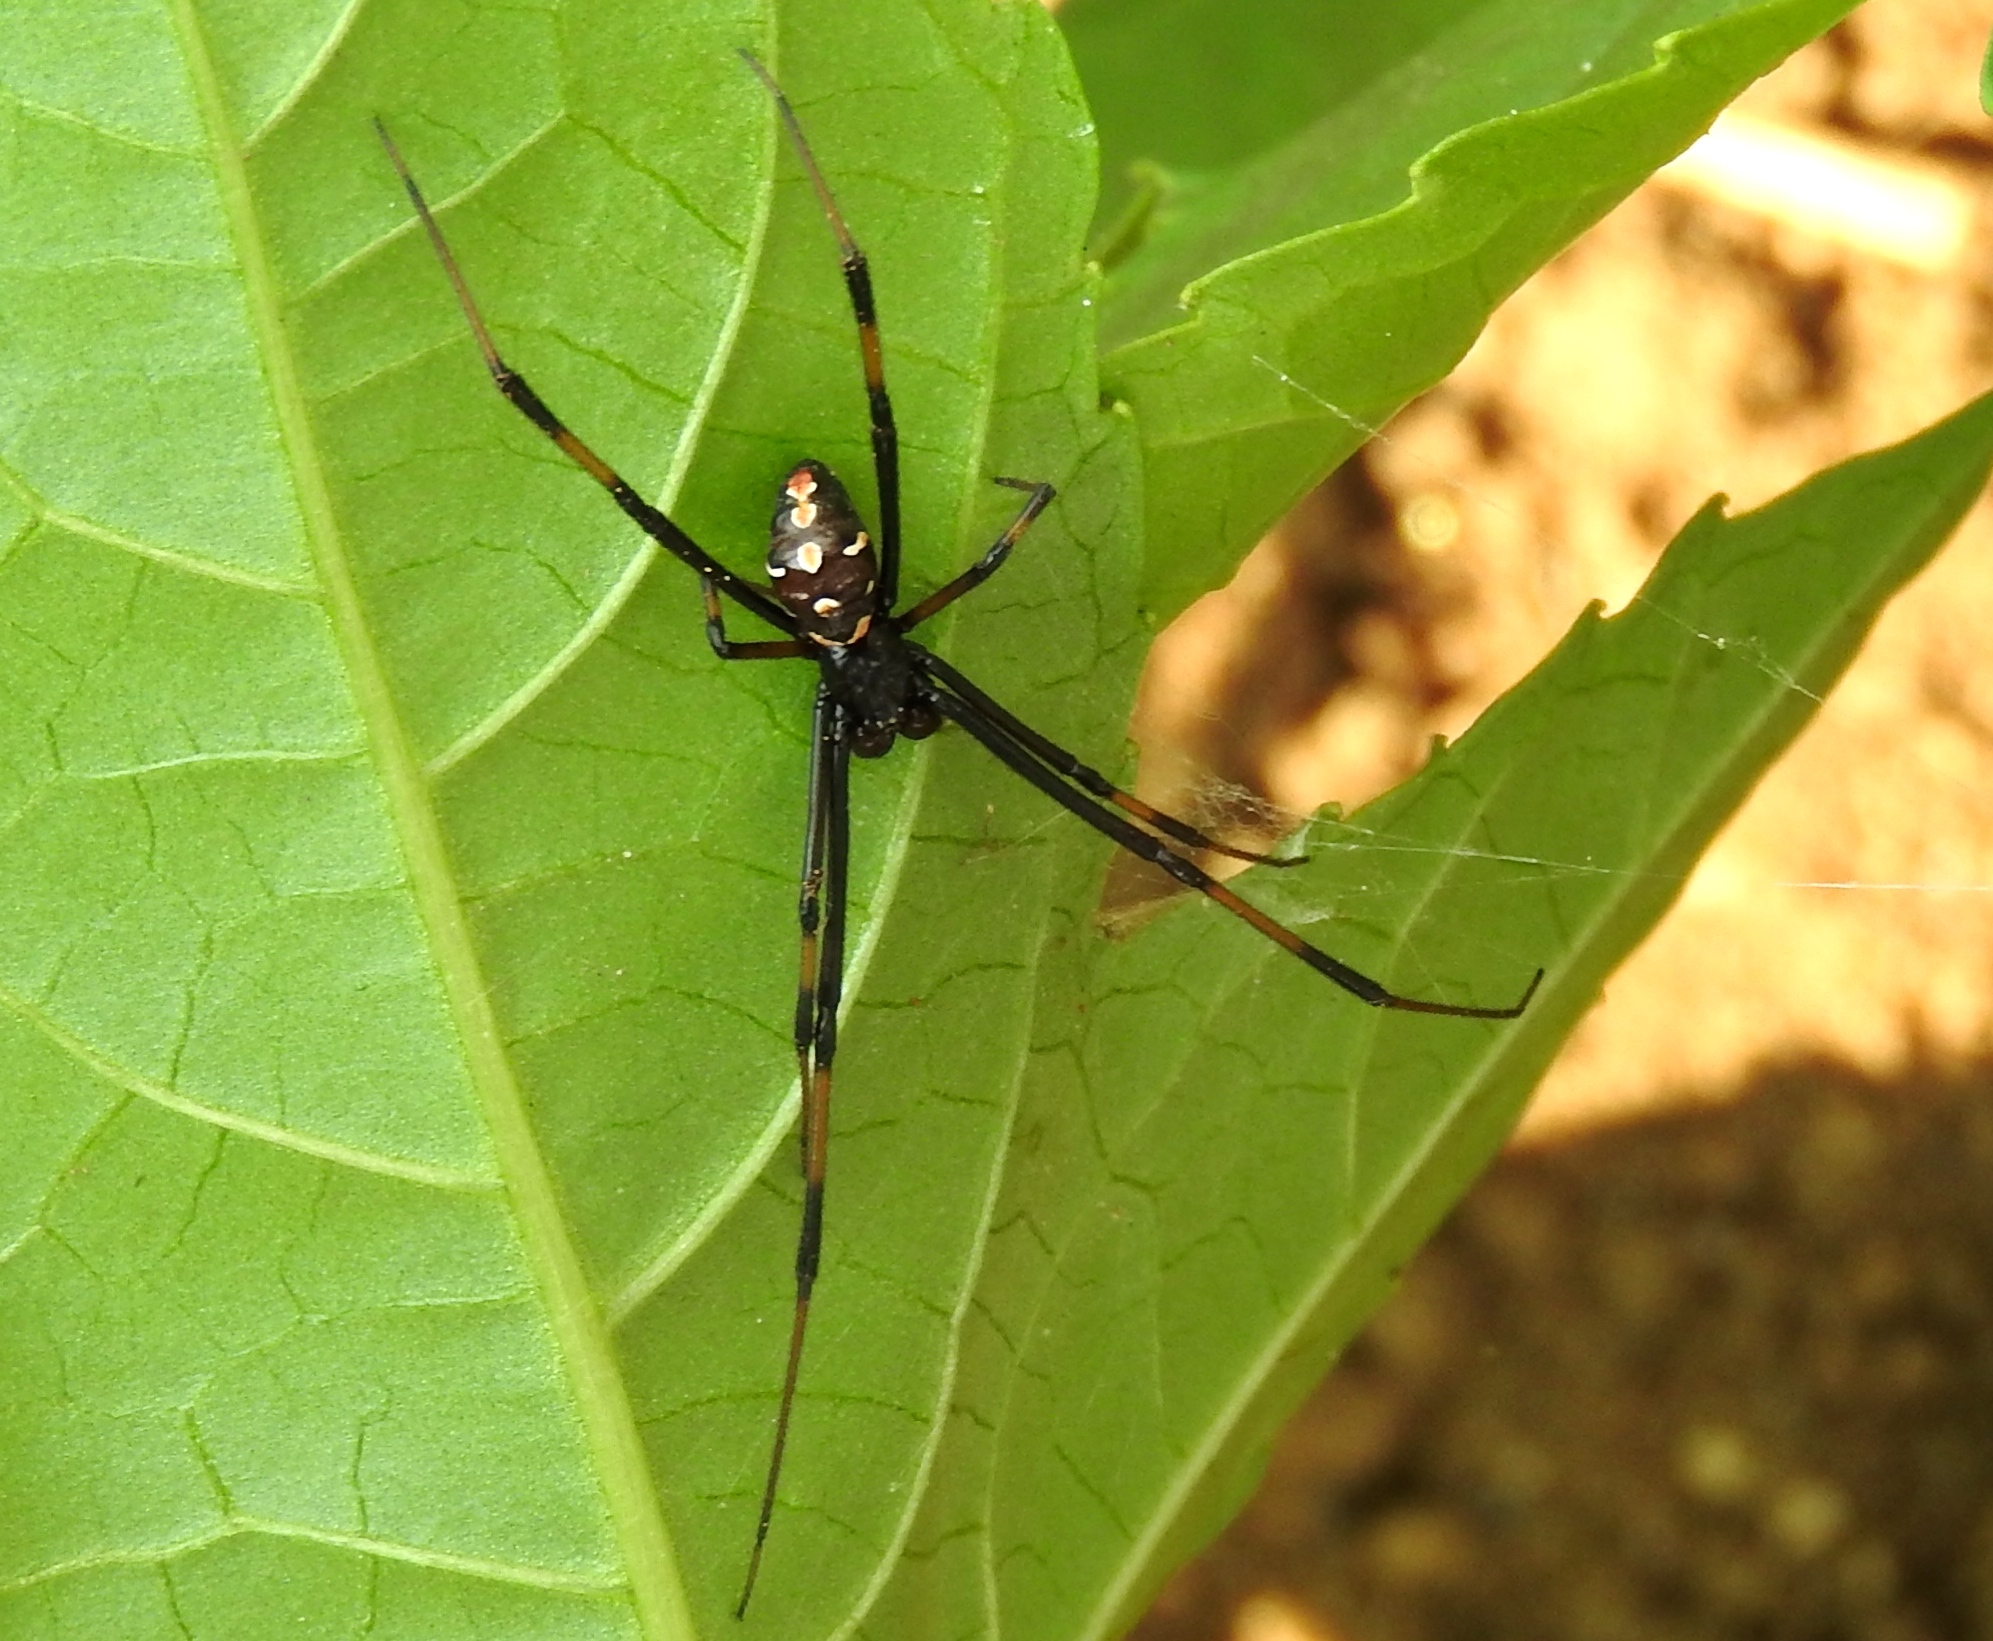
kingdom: Animalia
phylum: Arthropoda
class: Arachnida
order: Araneae
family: Theridiidae
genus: Latrodectus
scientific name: Latrodectus mactans
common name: Cobweb spiders
